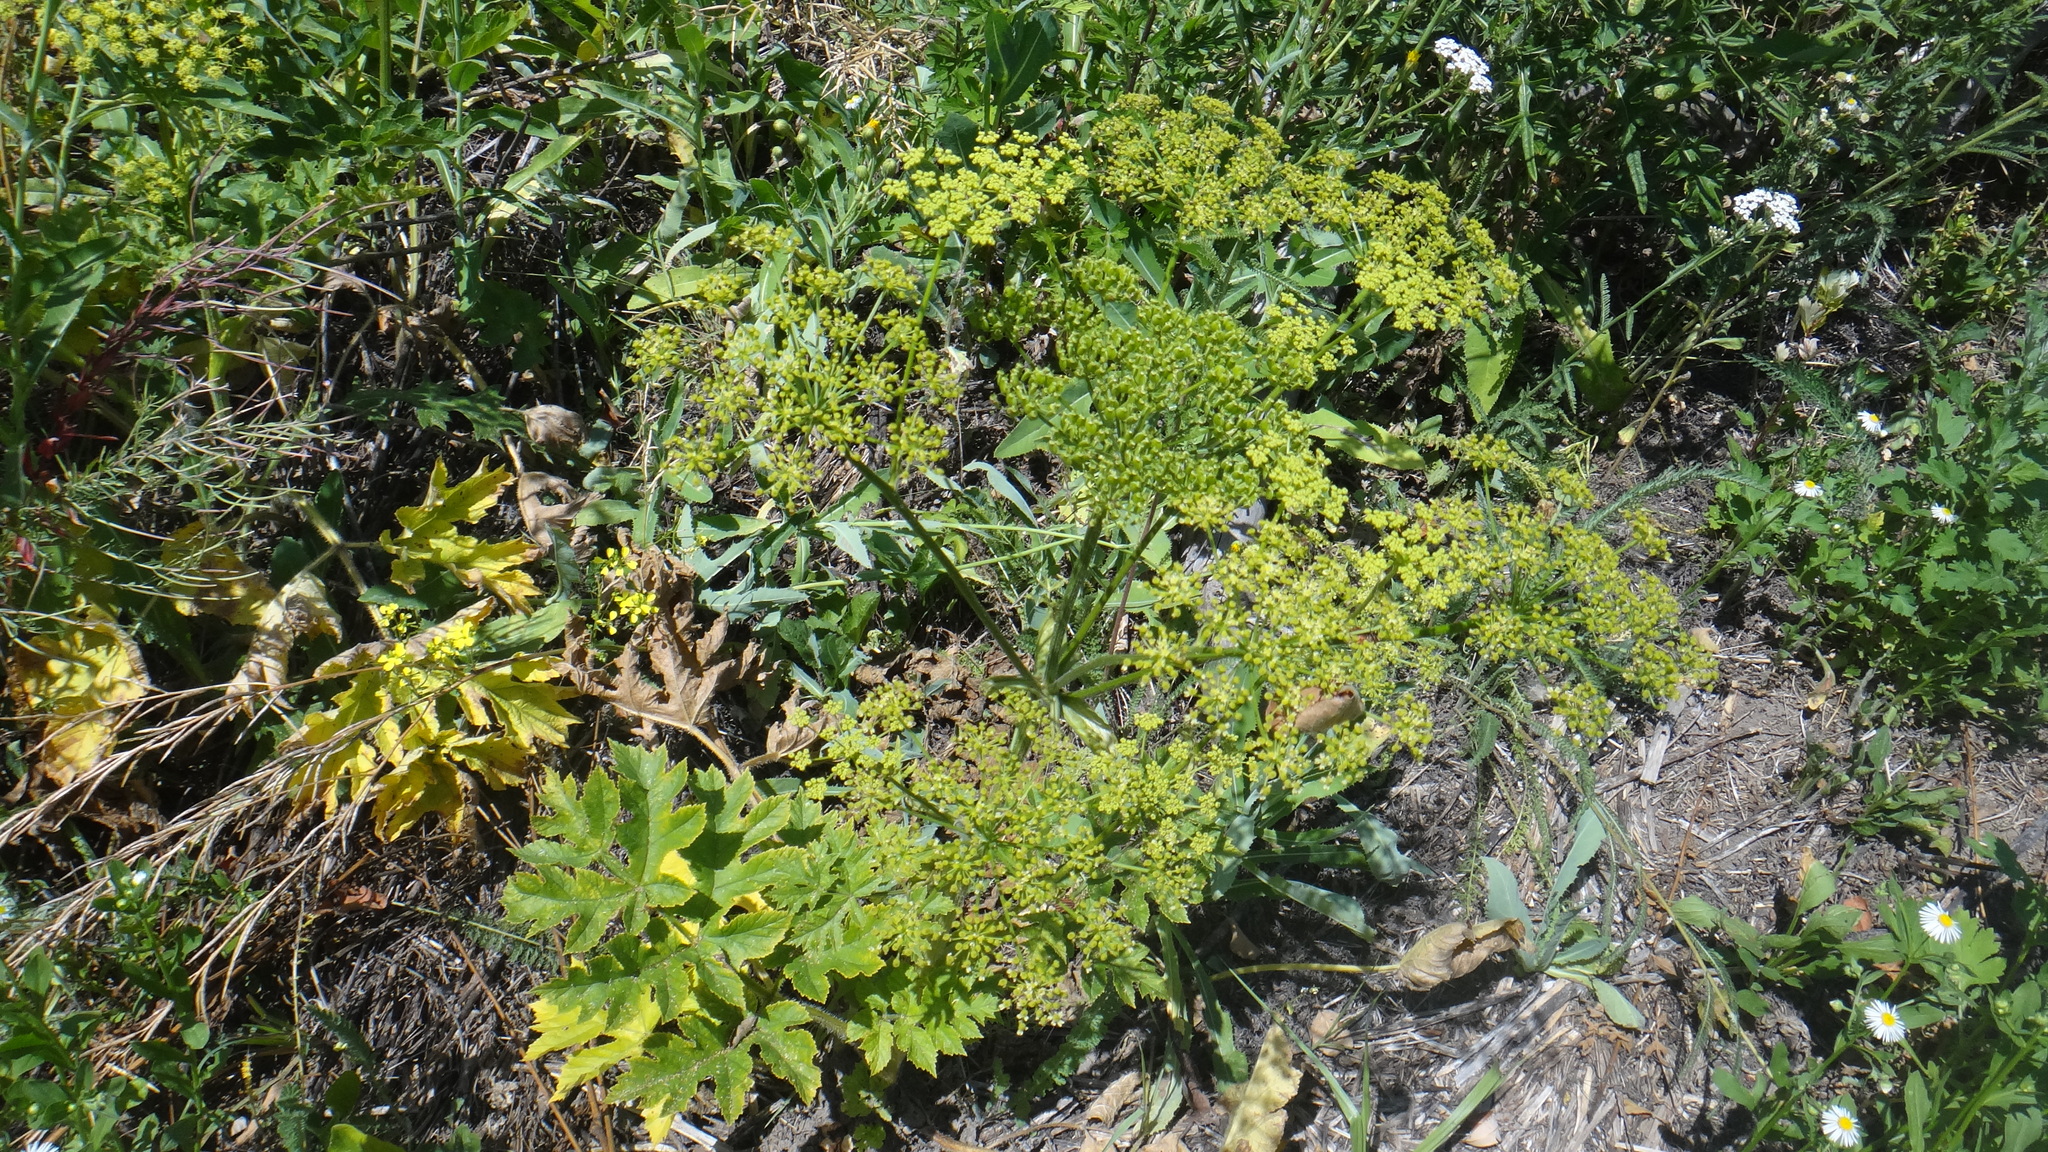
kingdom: Plantae
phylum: Tracheophyta
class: Magnoliopsida
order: Apiales
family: Apiaceae
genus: Heracleum
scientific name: Heracleum sphondylium
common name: Hogweed
